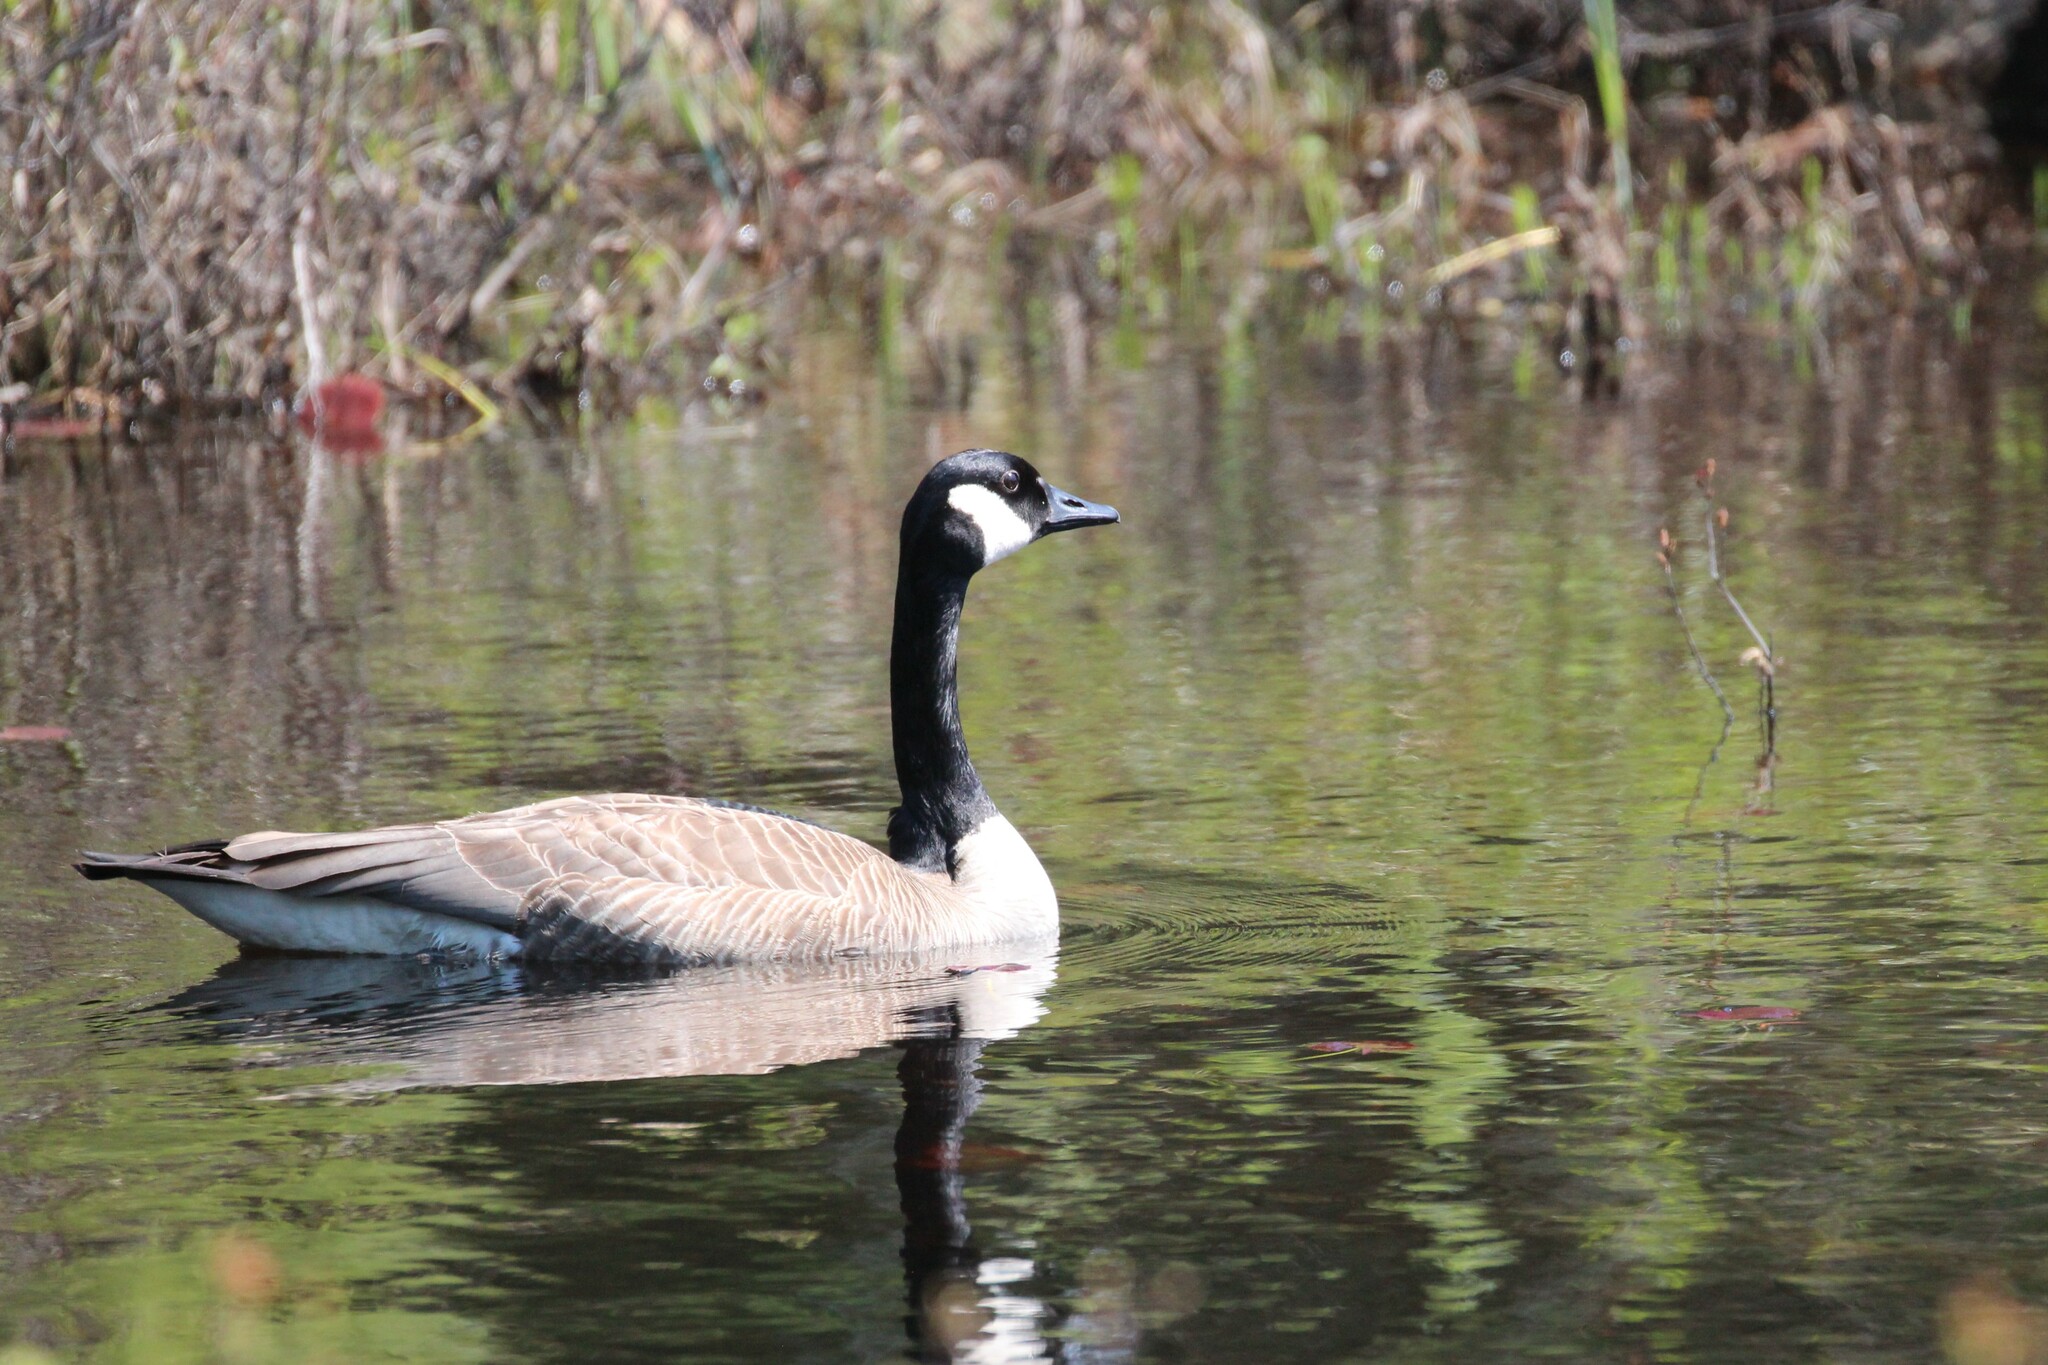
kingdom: Animalia
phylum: Chordata
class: Aves
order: Anseriformes
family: Anatidae
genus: Branta
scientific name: Branta canadensis
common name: Canada goose
